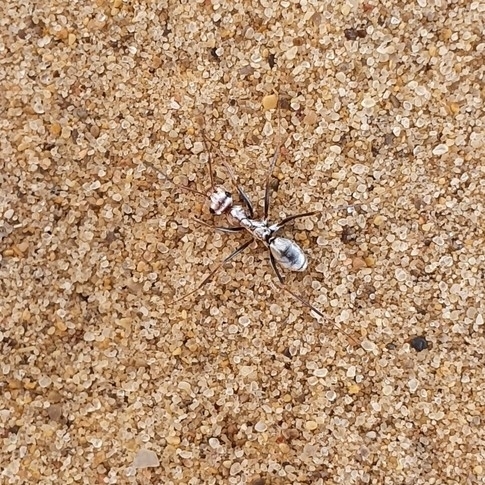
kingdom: Animalia
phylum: Arthropoda
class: Insecta
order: Hymenoptera
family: Formicidae
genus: Cataglyphis
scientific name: Cataglyphis bombycinus
